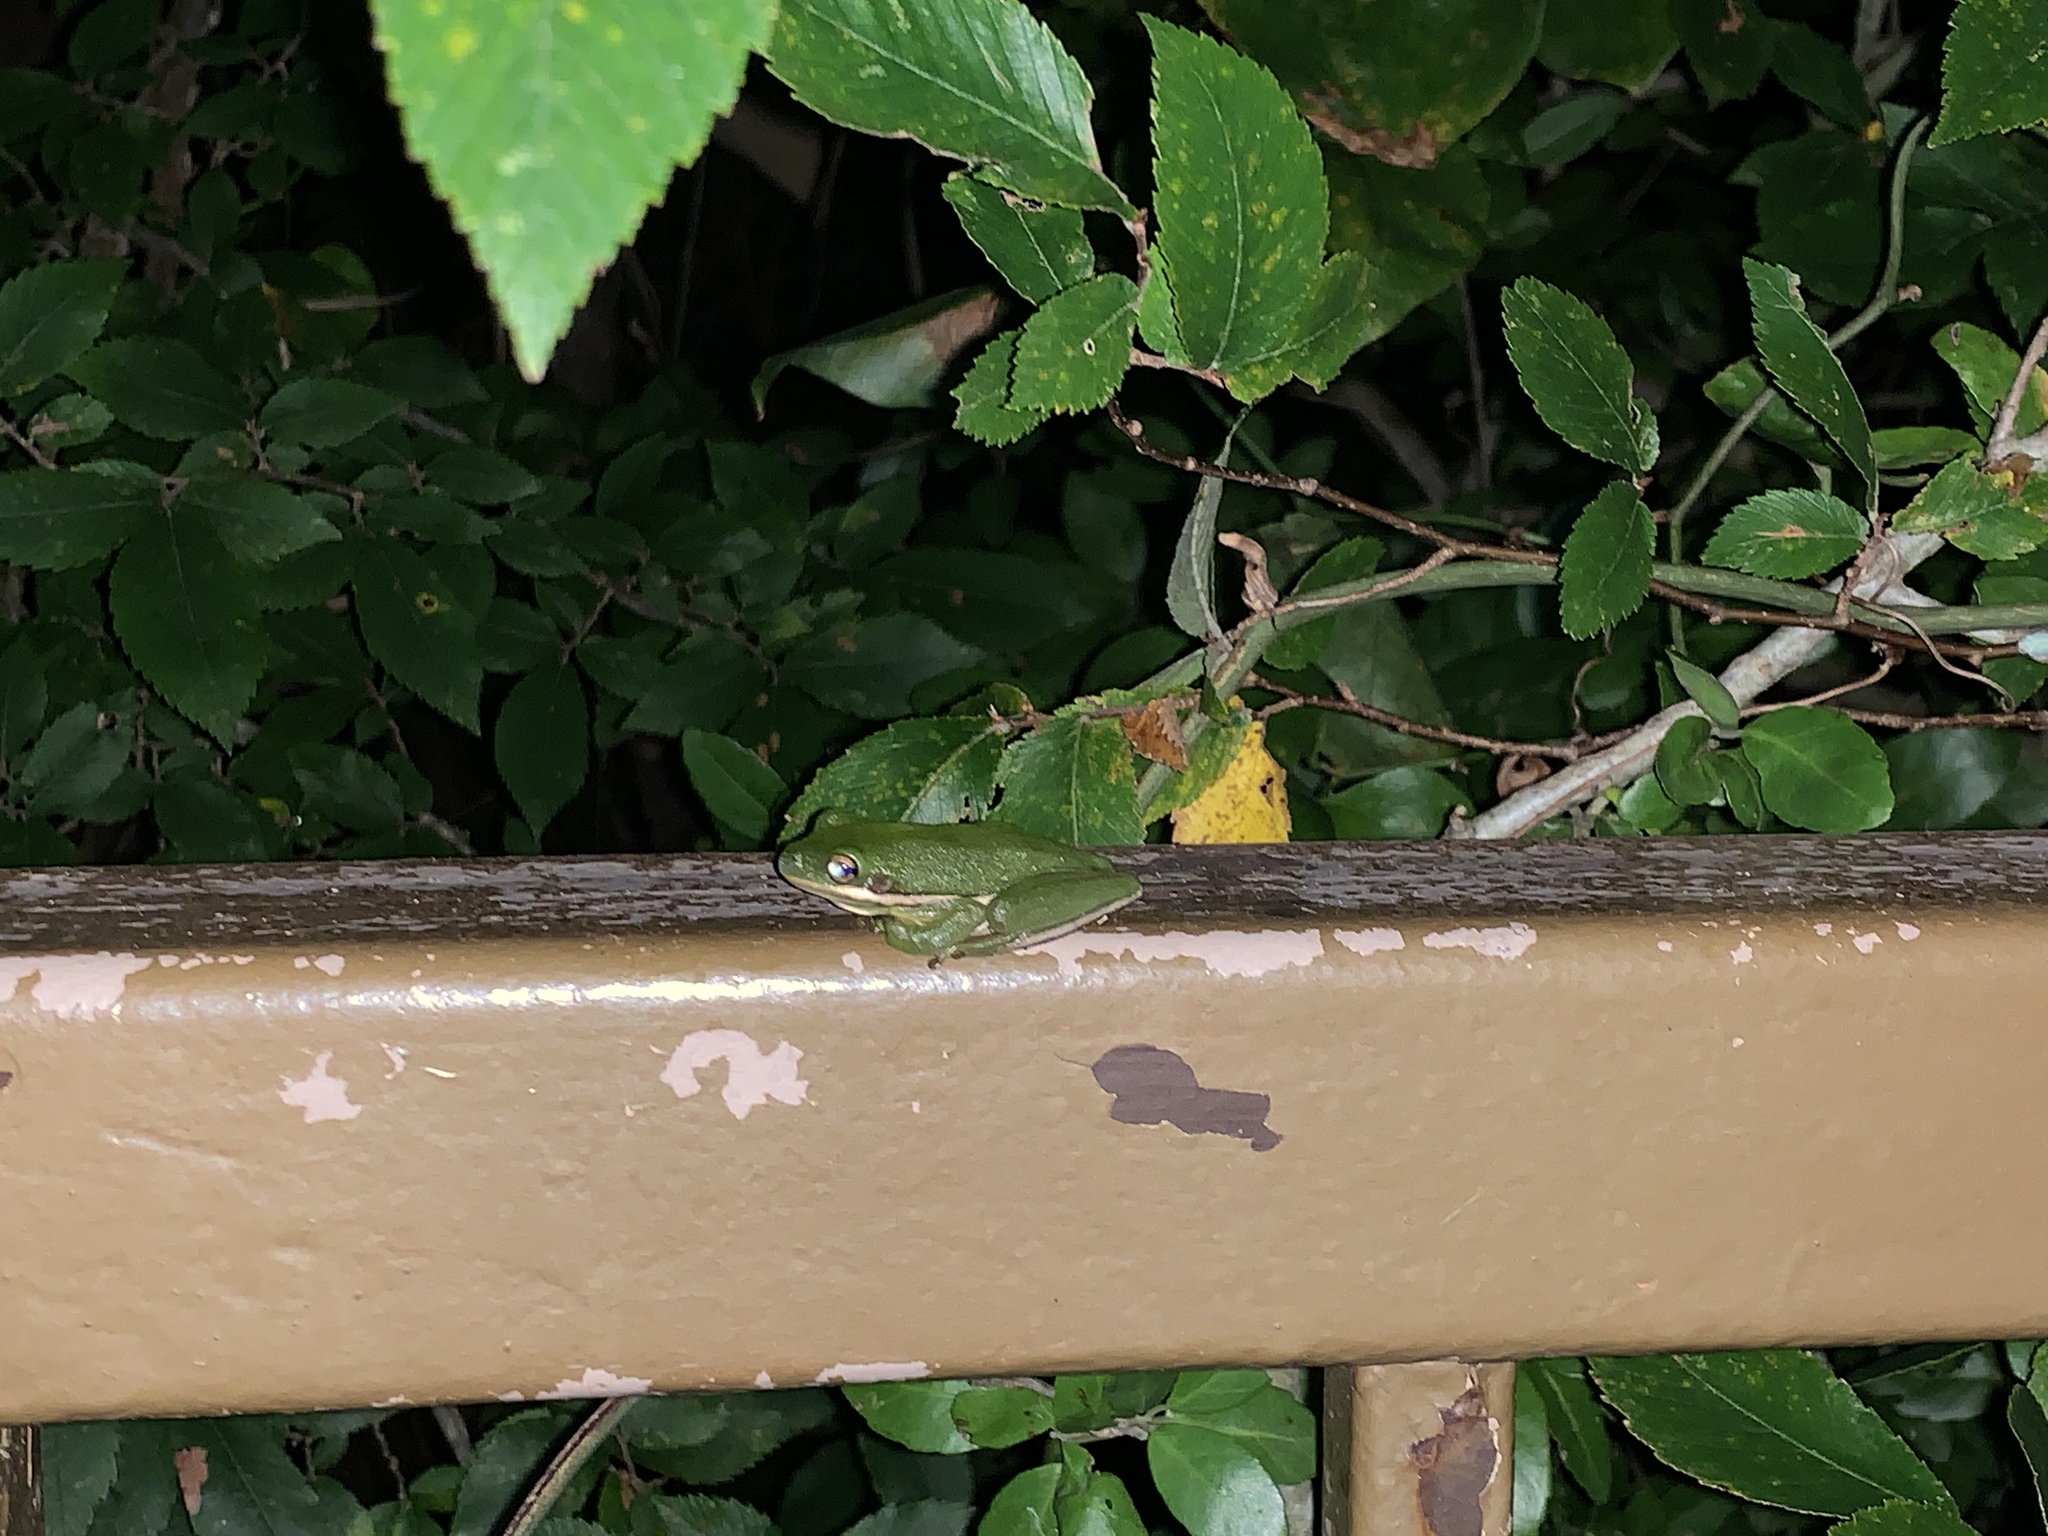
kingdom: Animalia
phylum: Chordata
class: Amphibia
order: Anura
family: Hylidae
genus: Dryophytes
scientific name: Dryophytes cinereus
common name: Green treefrog
